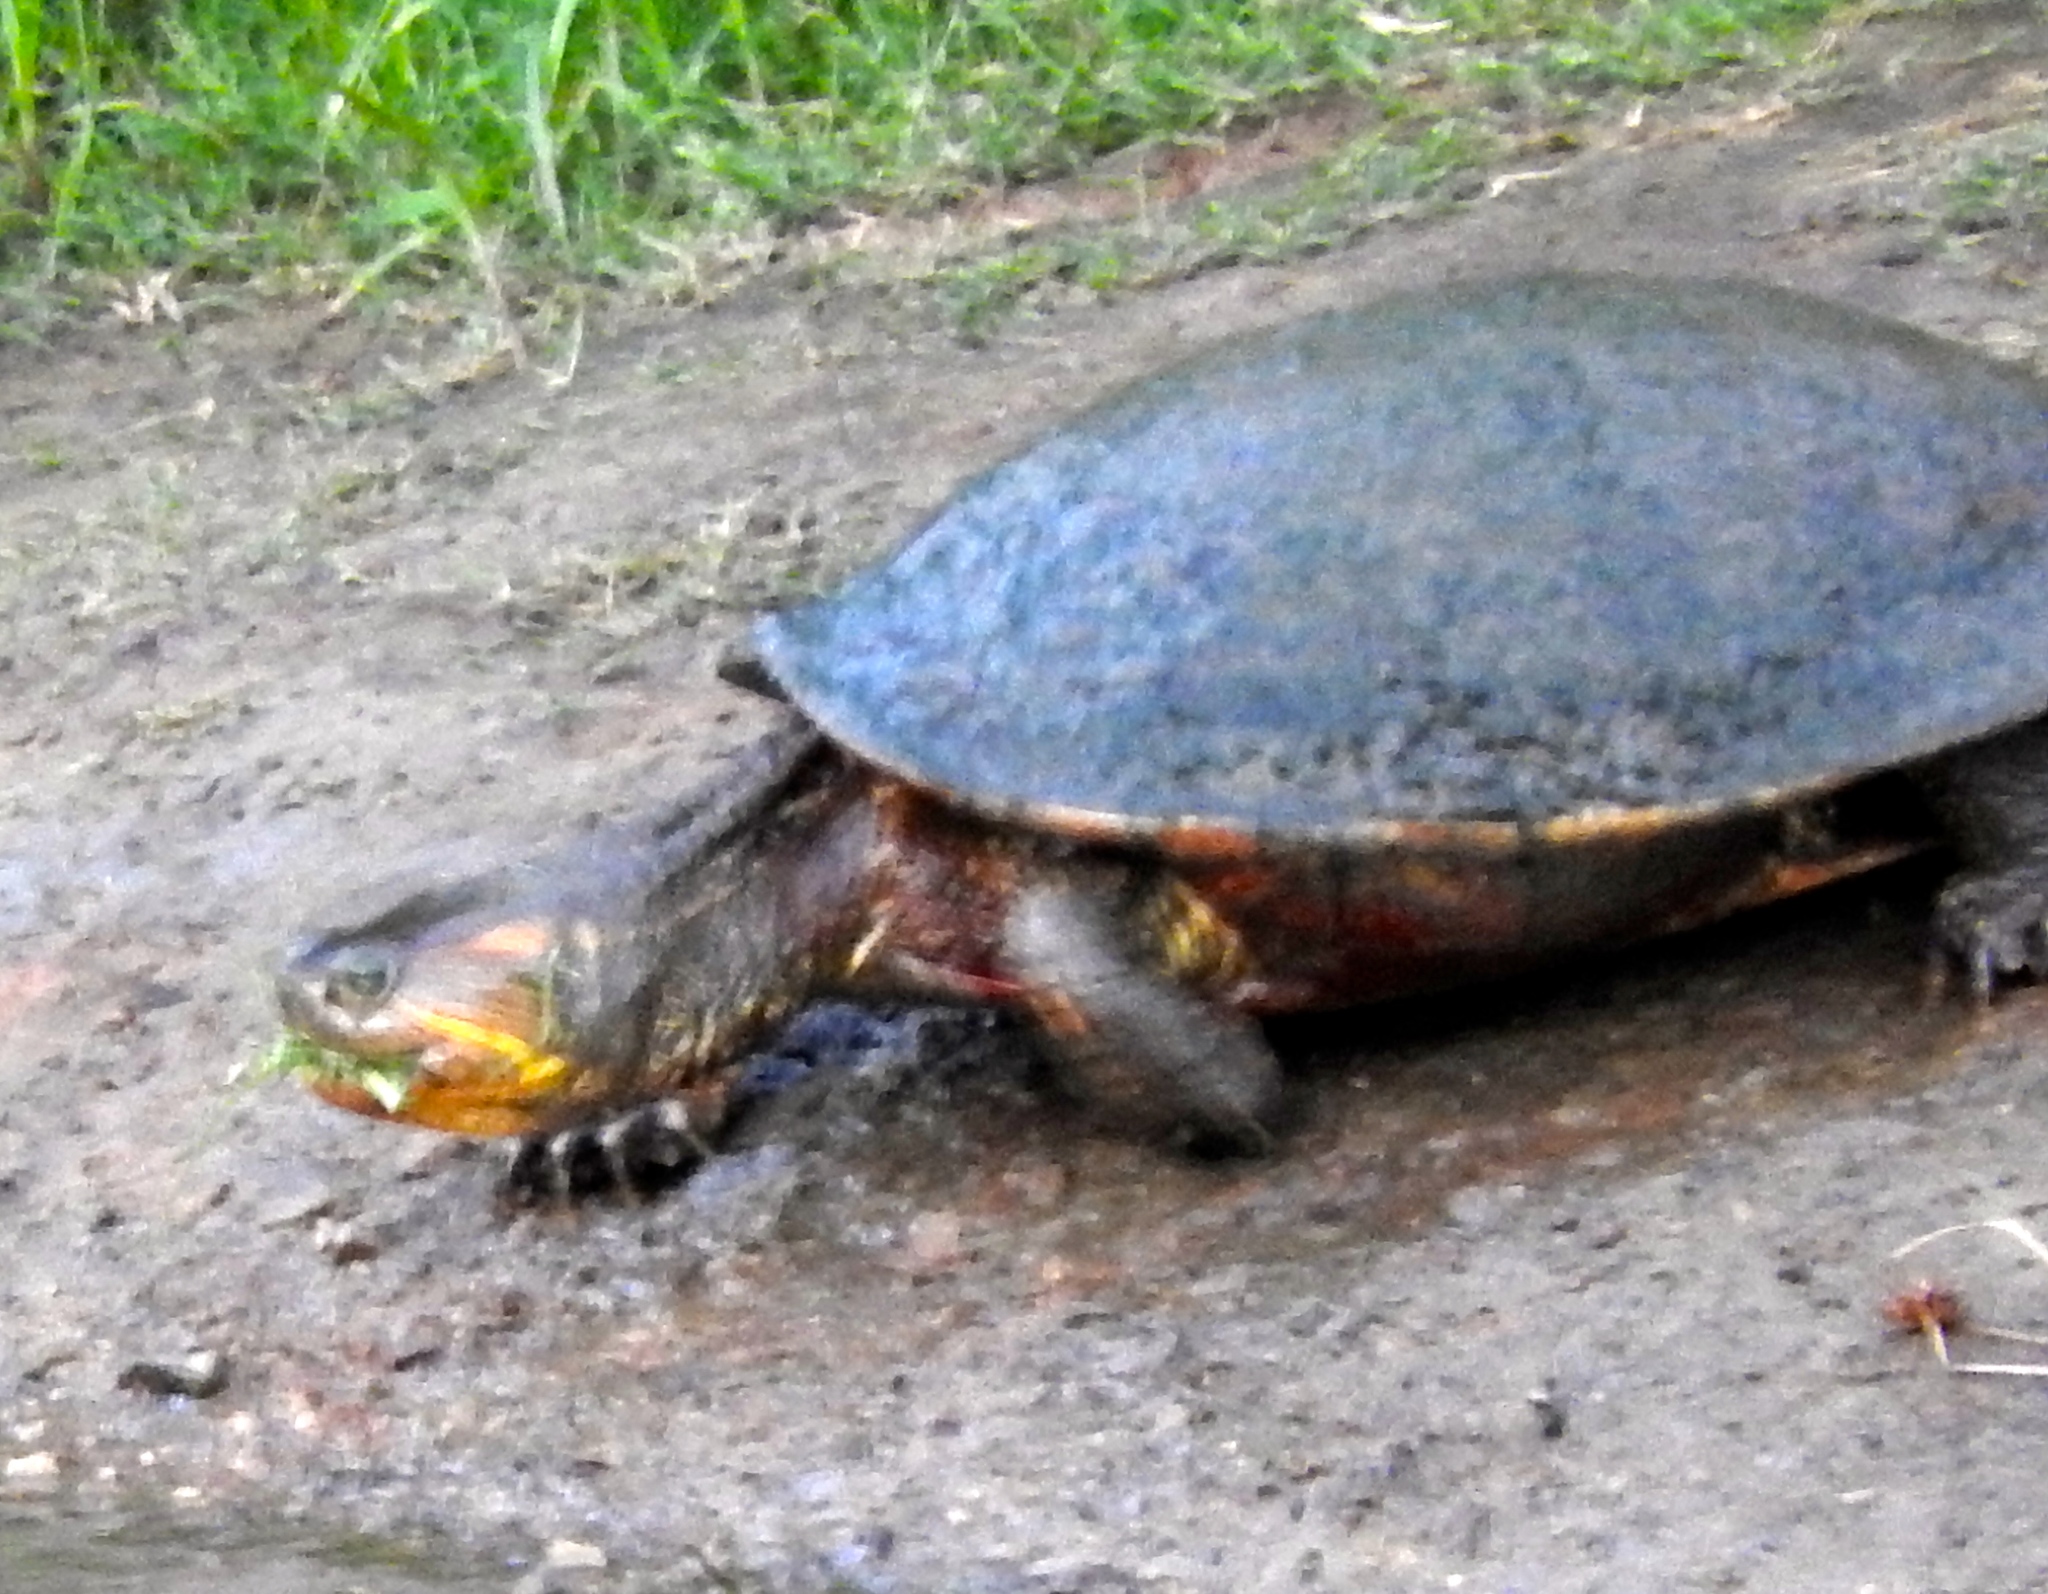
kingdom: Animalia
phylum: Chordata
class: Testudines
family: Emydidae
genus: Trachemys
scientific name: Trachemys ornata
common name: Ornate slider
